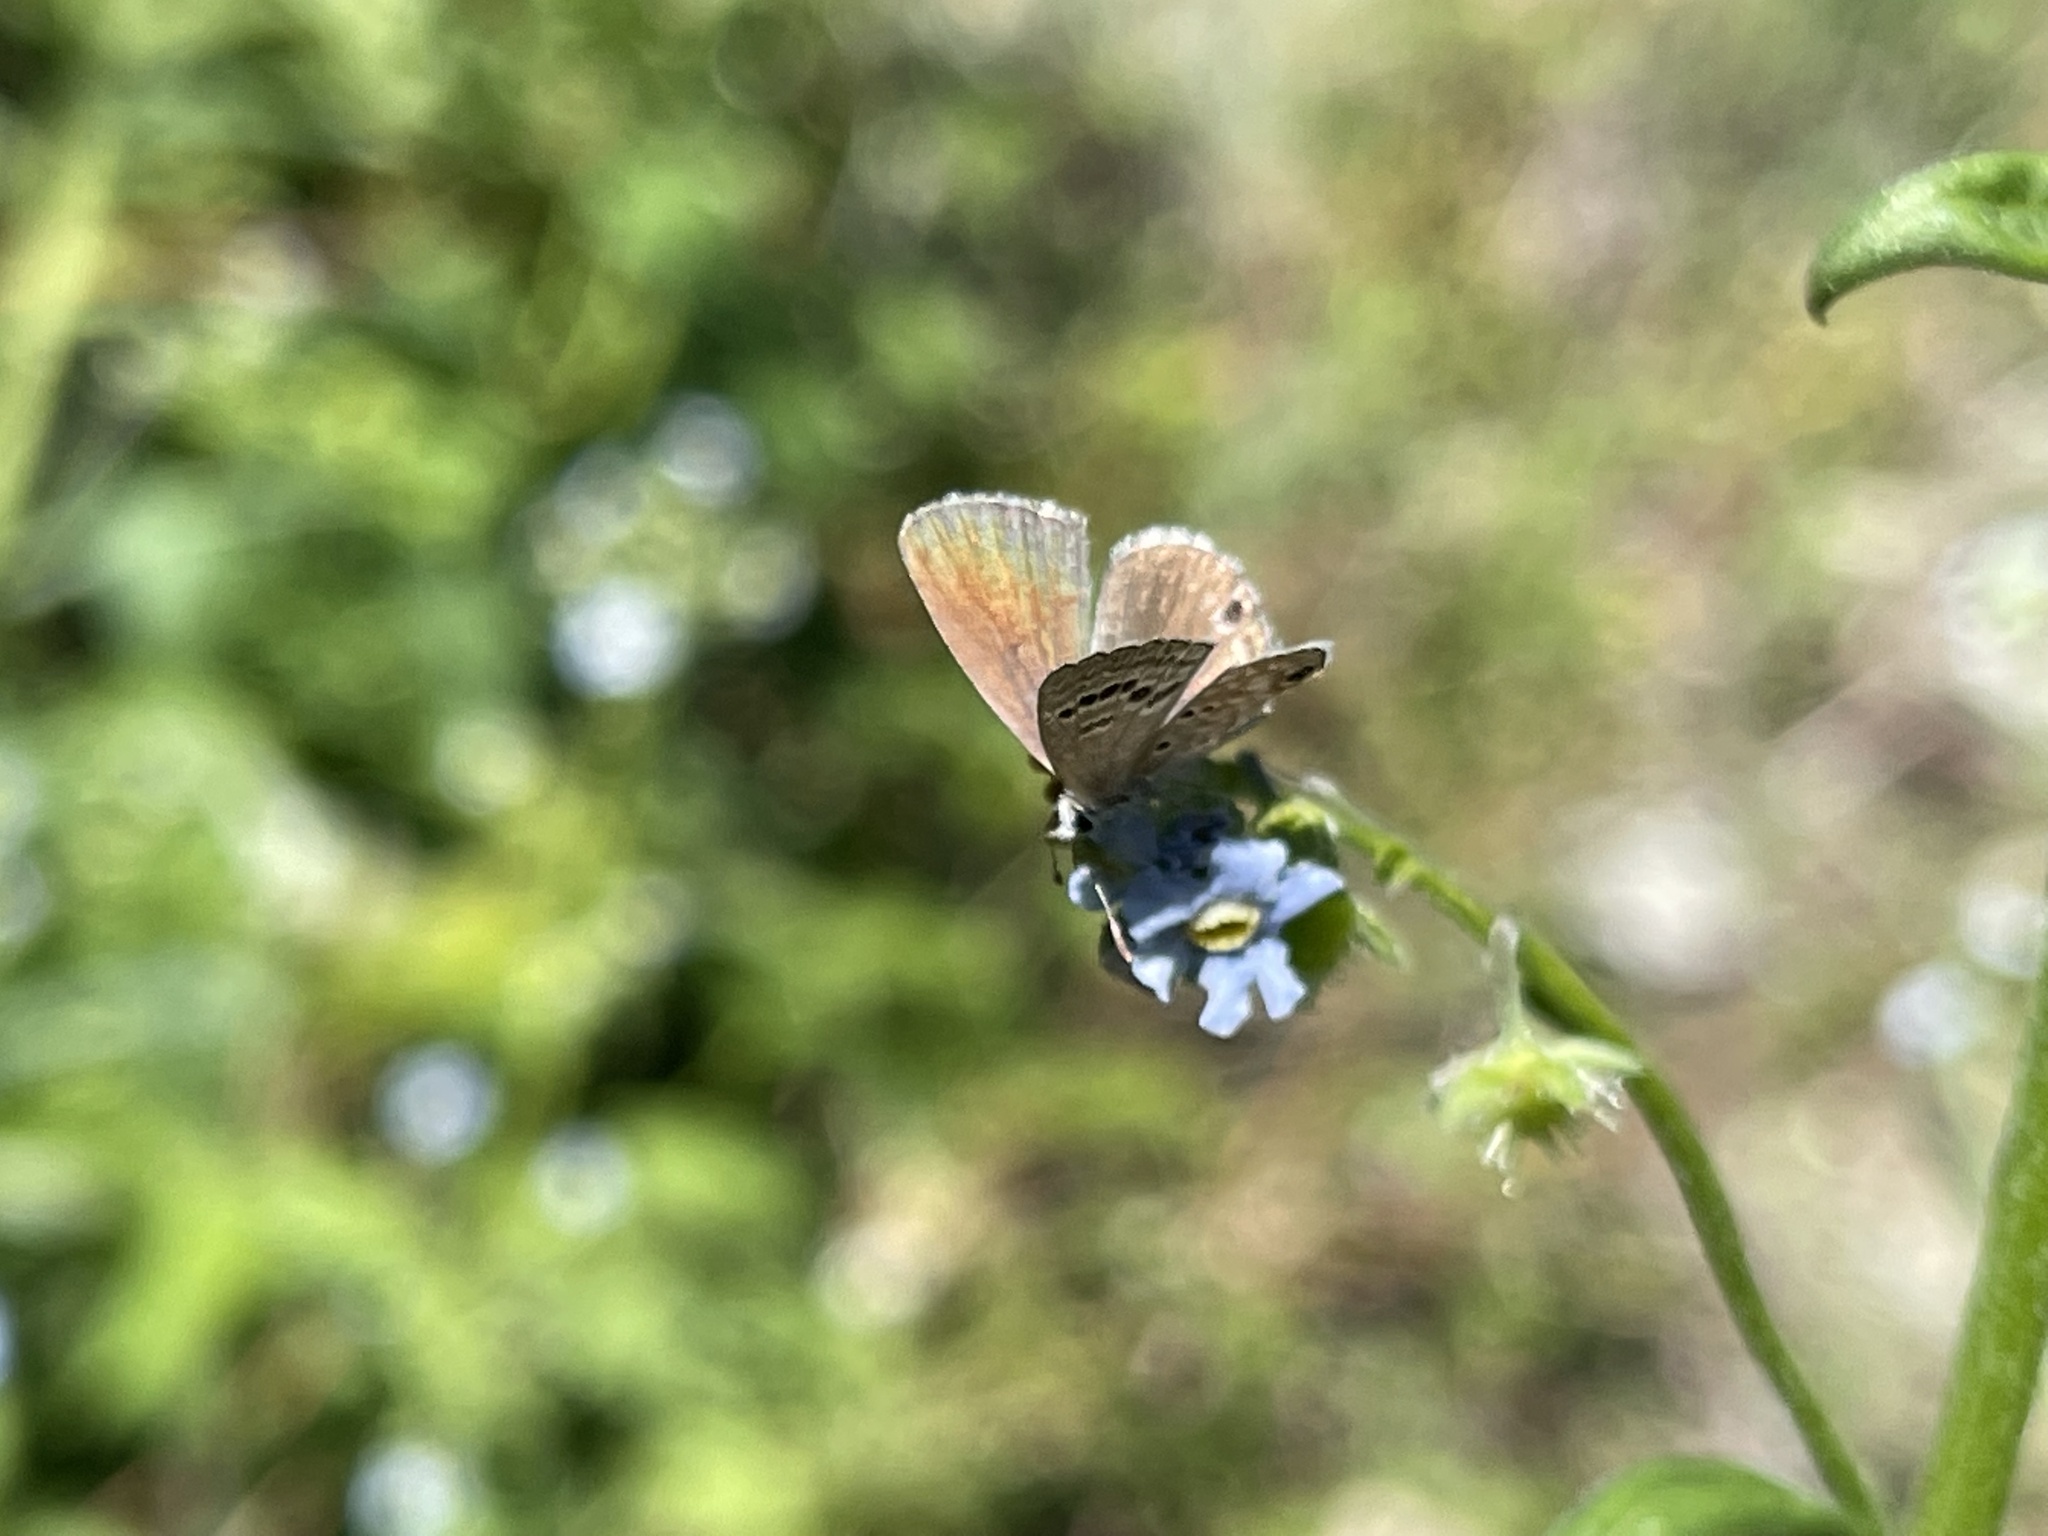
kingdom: Animalia
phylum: Arthropoda
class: Insecta
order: Lepidoptera
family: Lycaenidae
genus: Echinargus
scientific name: Echinargus isola
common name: Reakirt's blue
